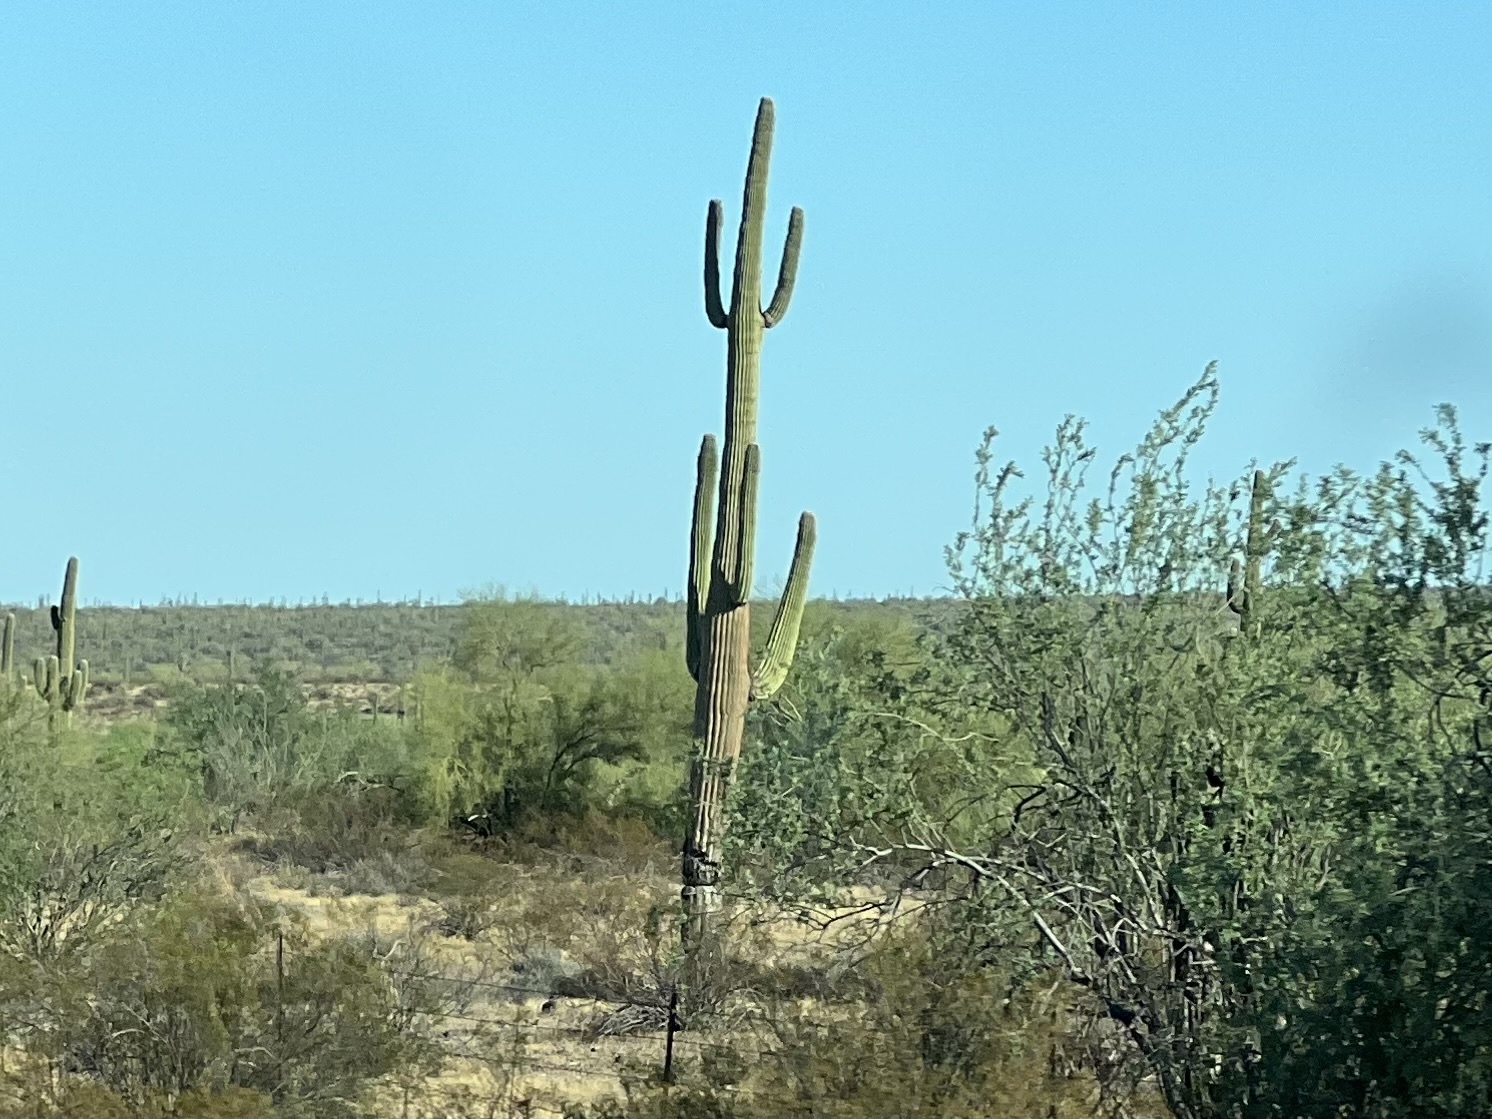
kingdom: Plantae
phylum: Tracheophyta
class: Magnoliopsida
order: Caryophyllales
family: Cactaceae
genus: Carnegiea
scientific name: Carnegiea gigantea
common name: Saguaro
